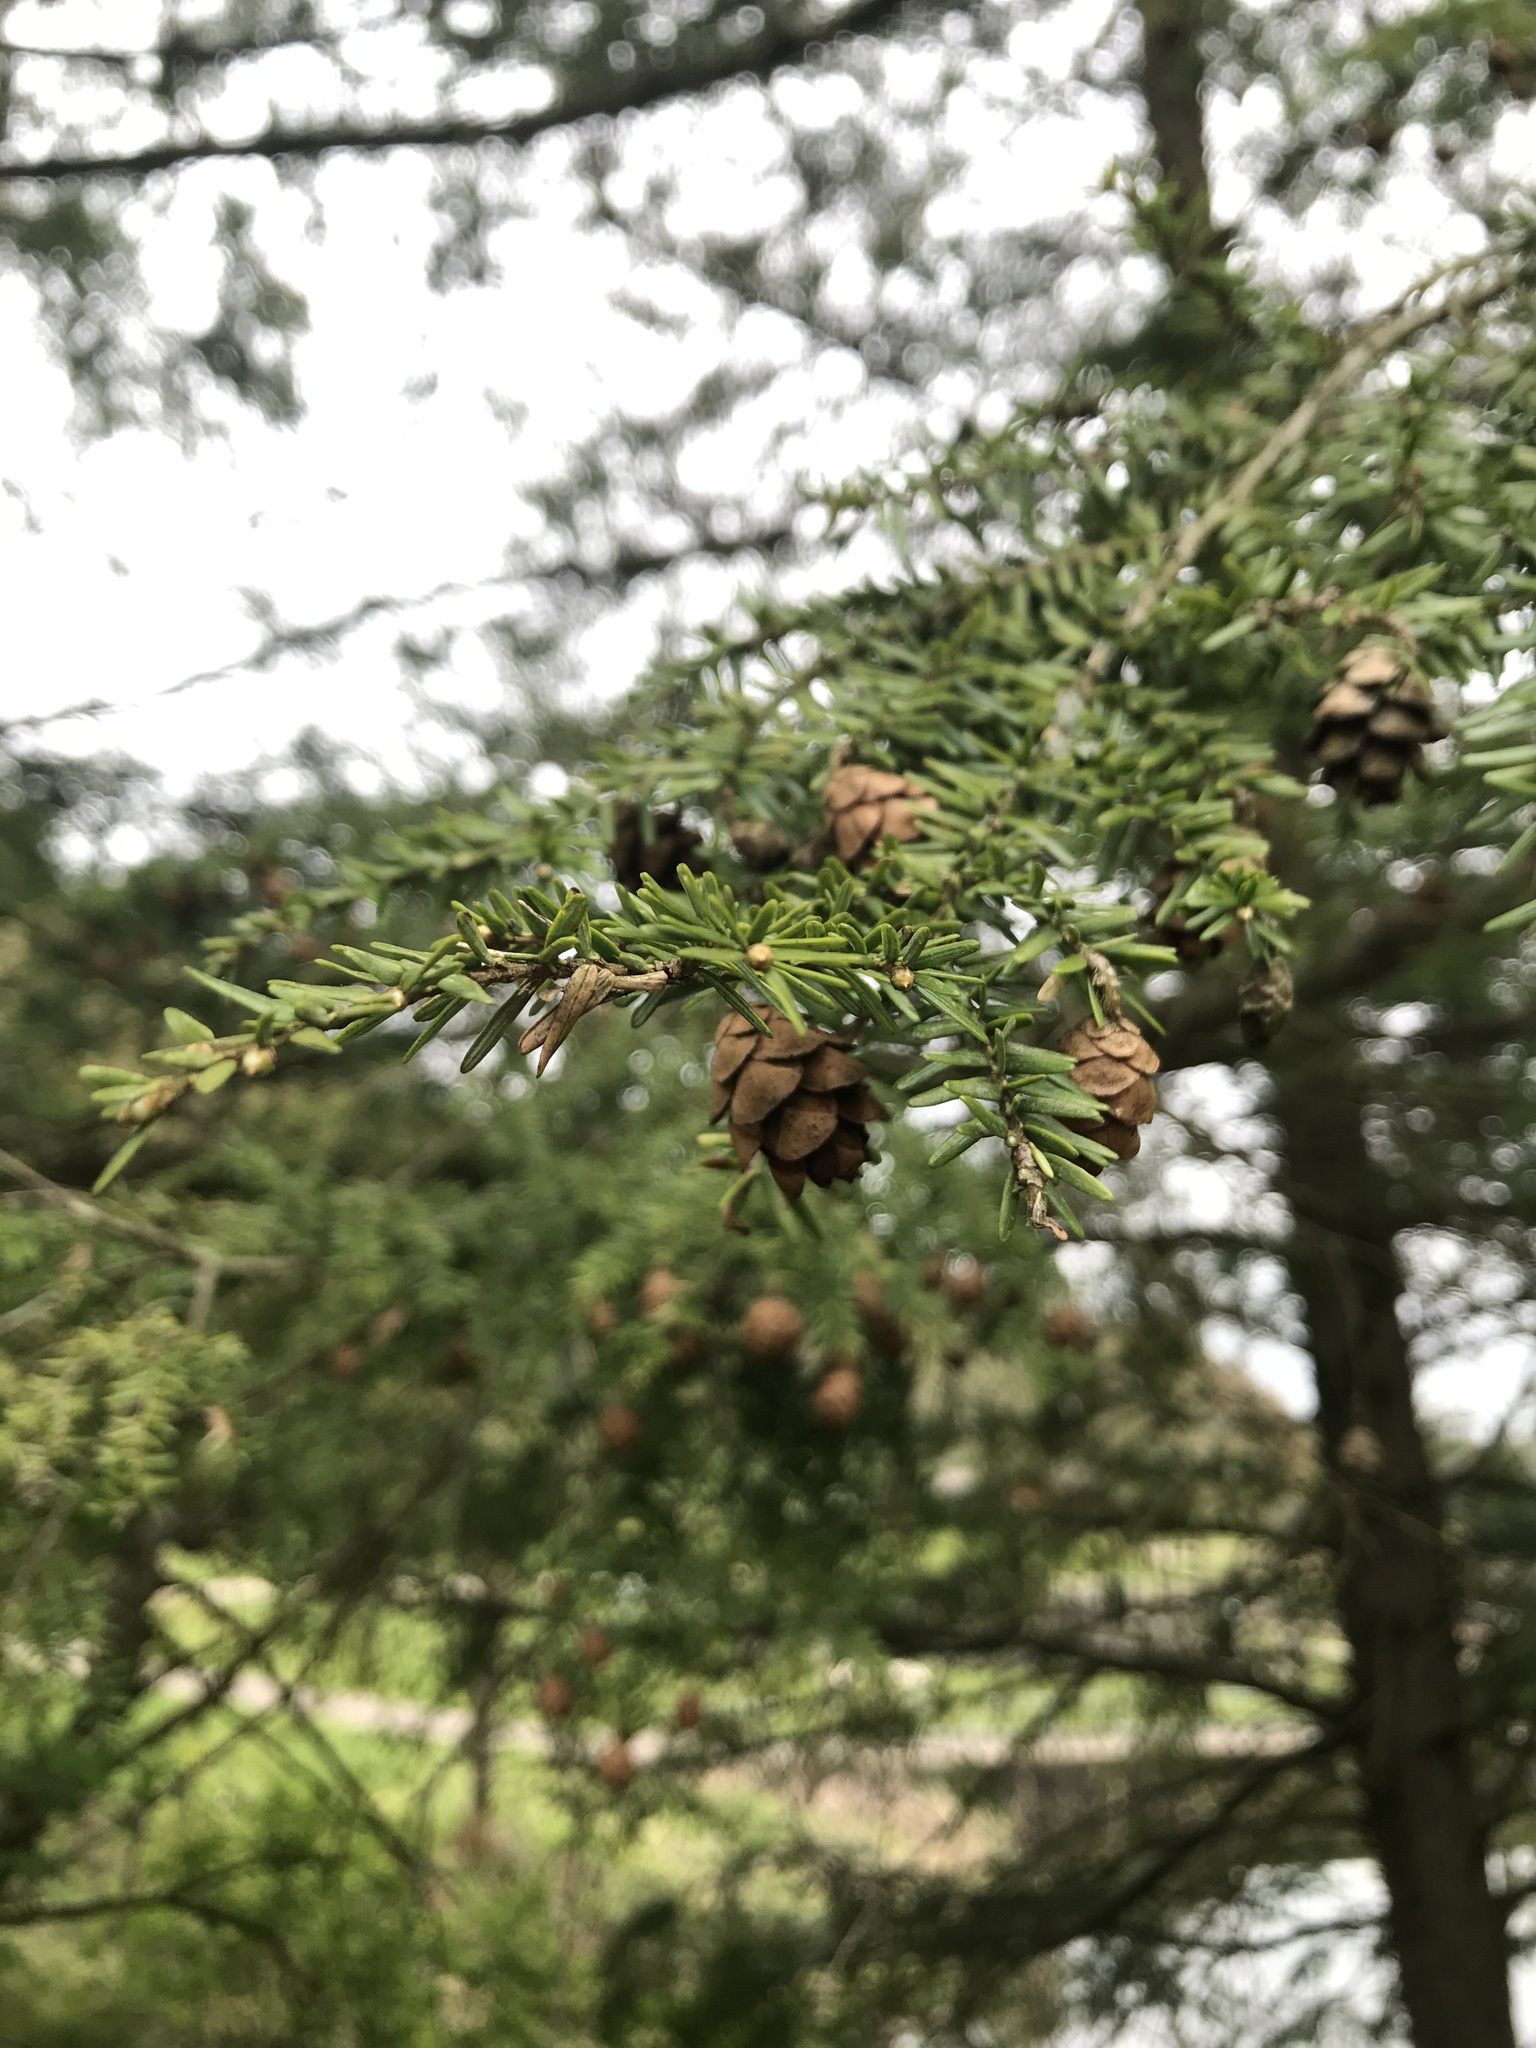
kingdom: Plantae
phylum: Tracheophyta
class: Pinopsida
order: Pinales
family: Pinaceae
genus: Tsuga
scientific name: Tsuga canadensis
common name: Eastern hemlock
